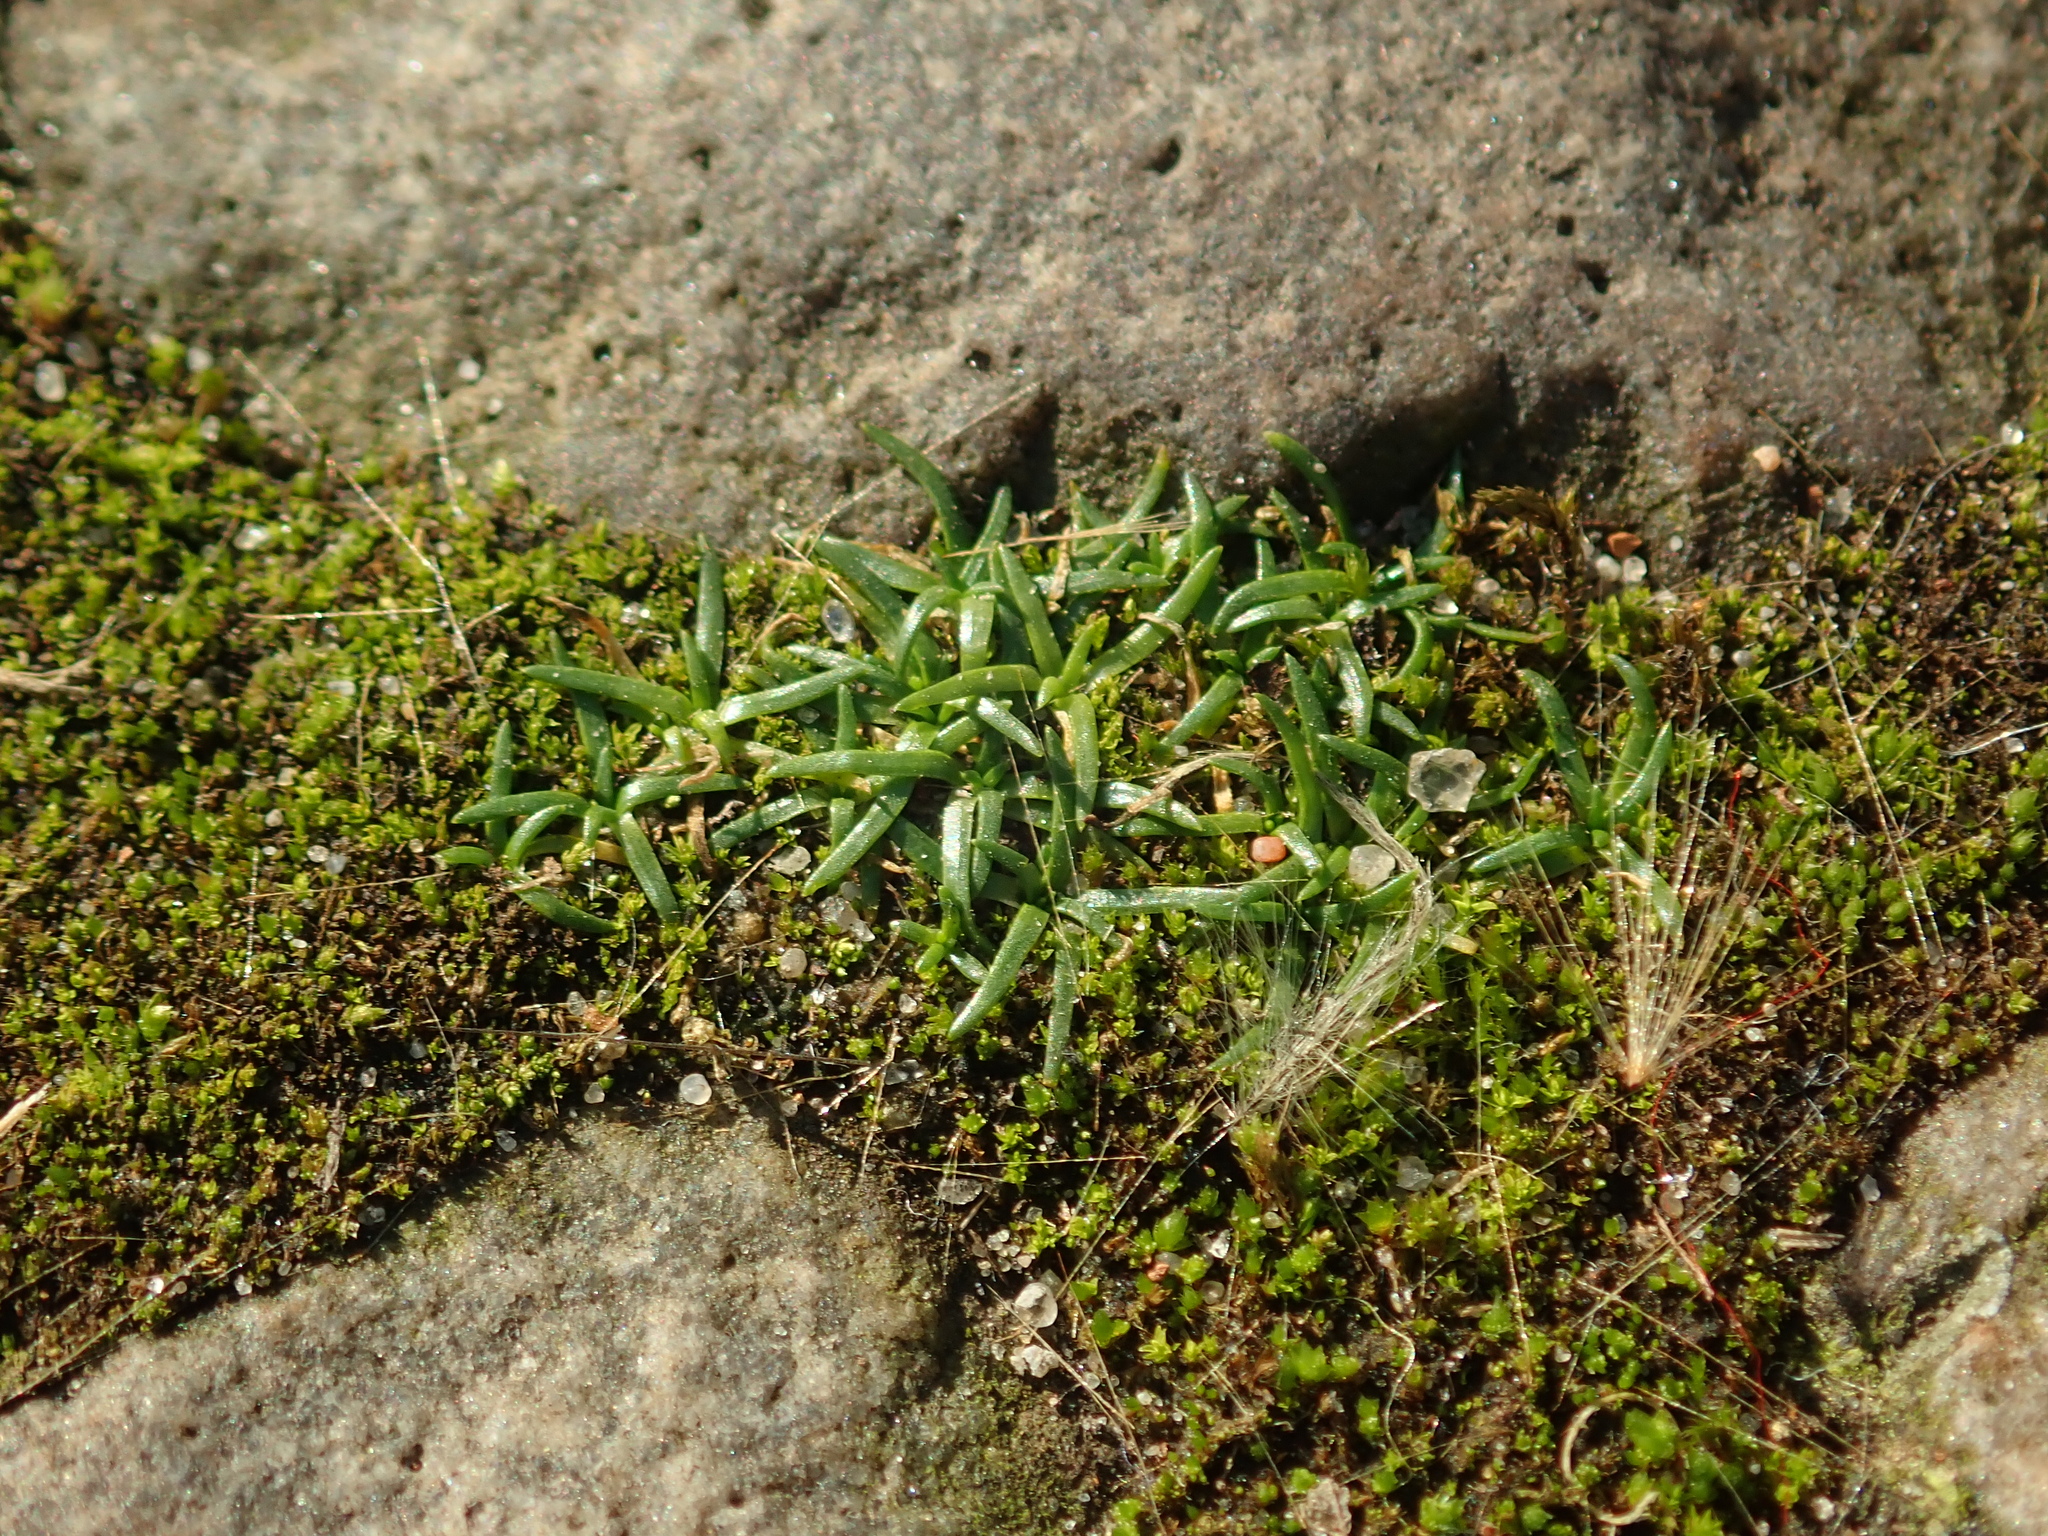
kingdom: Plantae
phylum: Tracheophyta
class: Magnoliopsida
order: Caryophyllales
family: Caryophyllaceae
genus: Sagina
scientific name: Sagina procumbens
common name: Procumbent pearlwort
